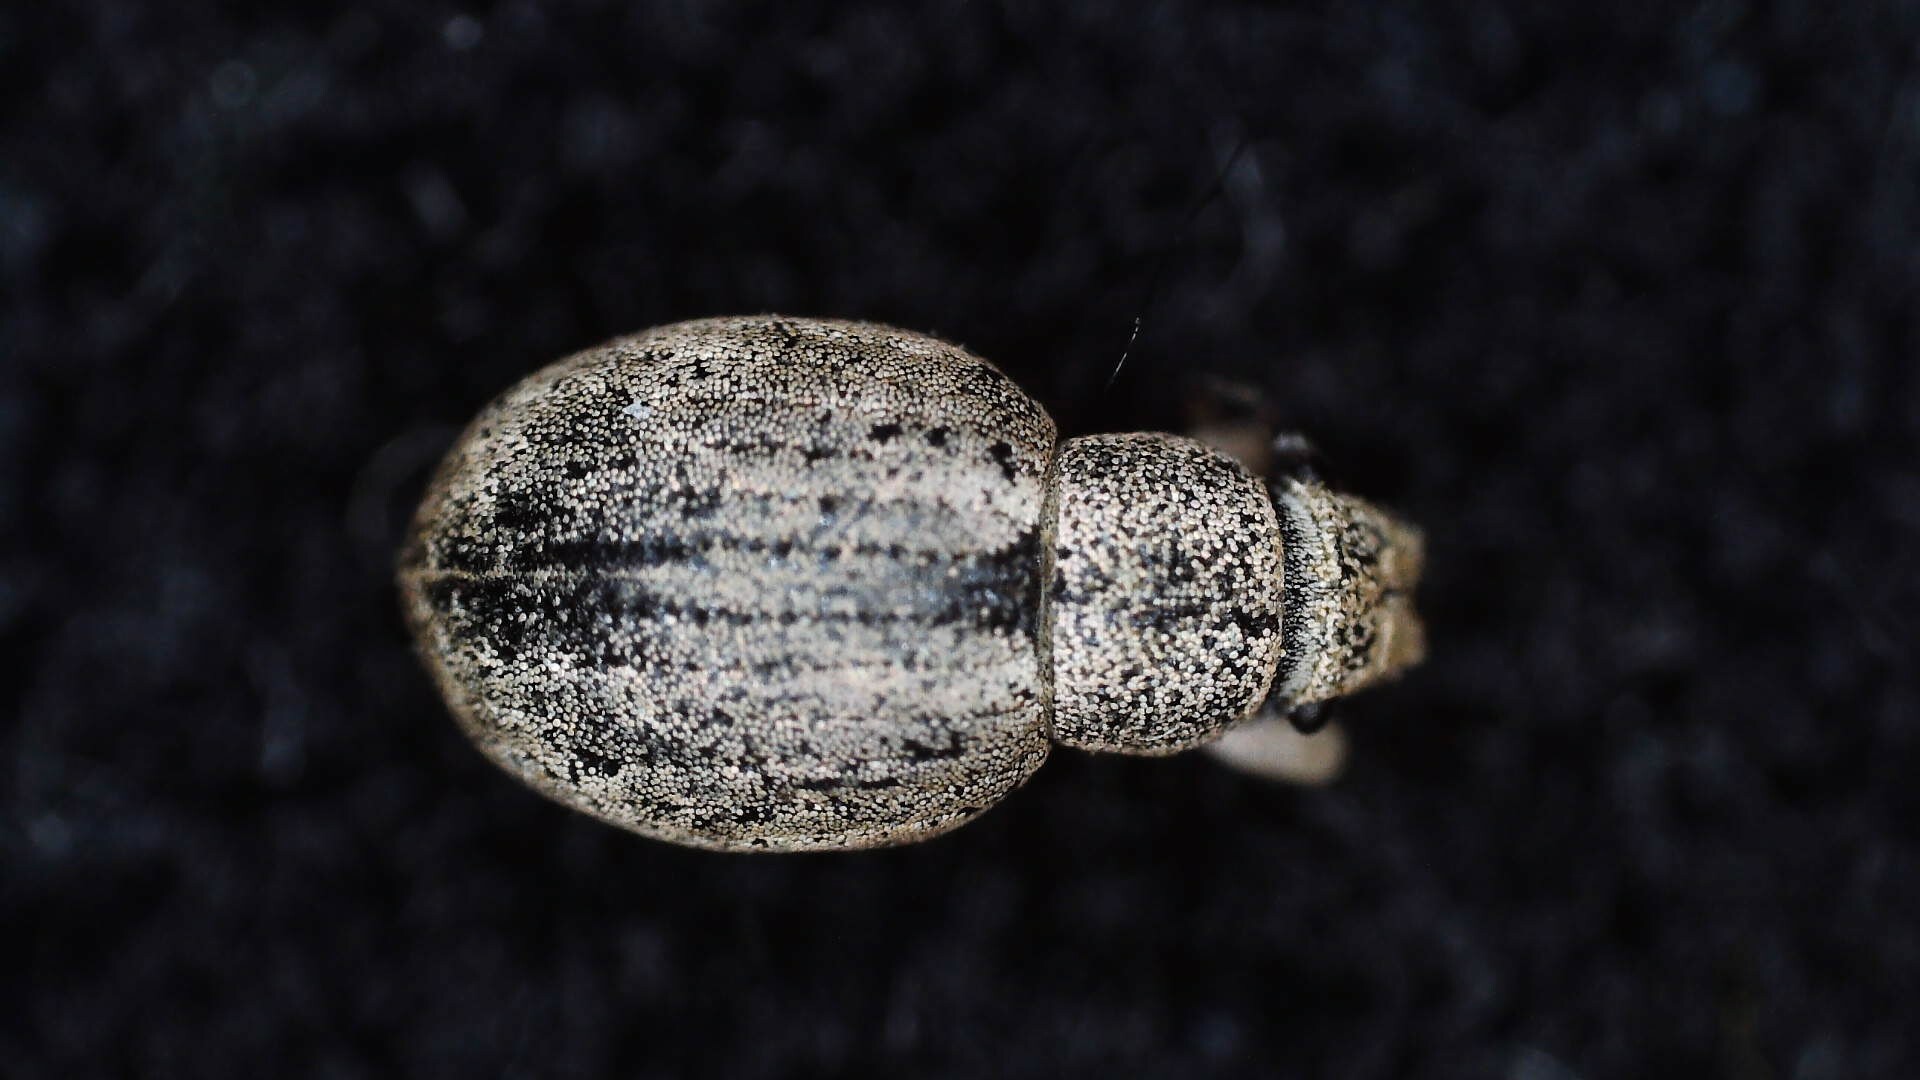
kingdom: Animalia
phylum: Arthropoda
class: Insecta
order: Coleoptera
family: Curculionidae
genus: Strophosoma
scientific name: Strophosoma capitatum
